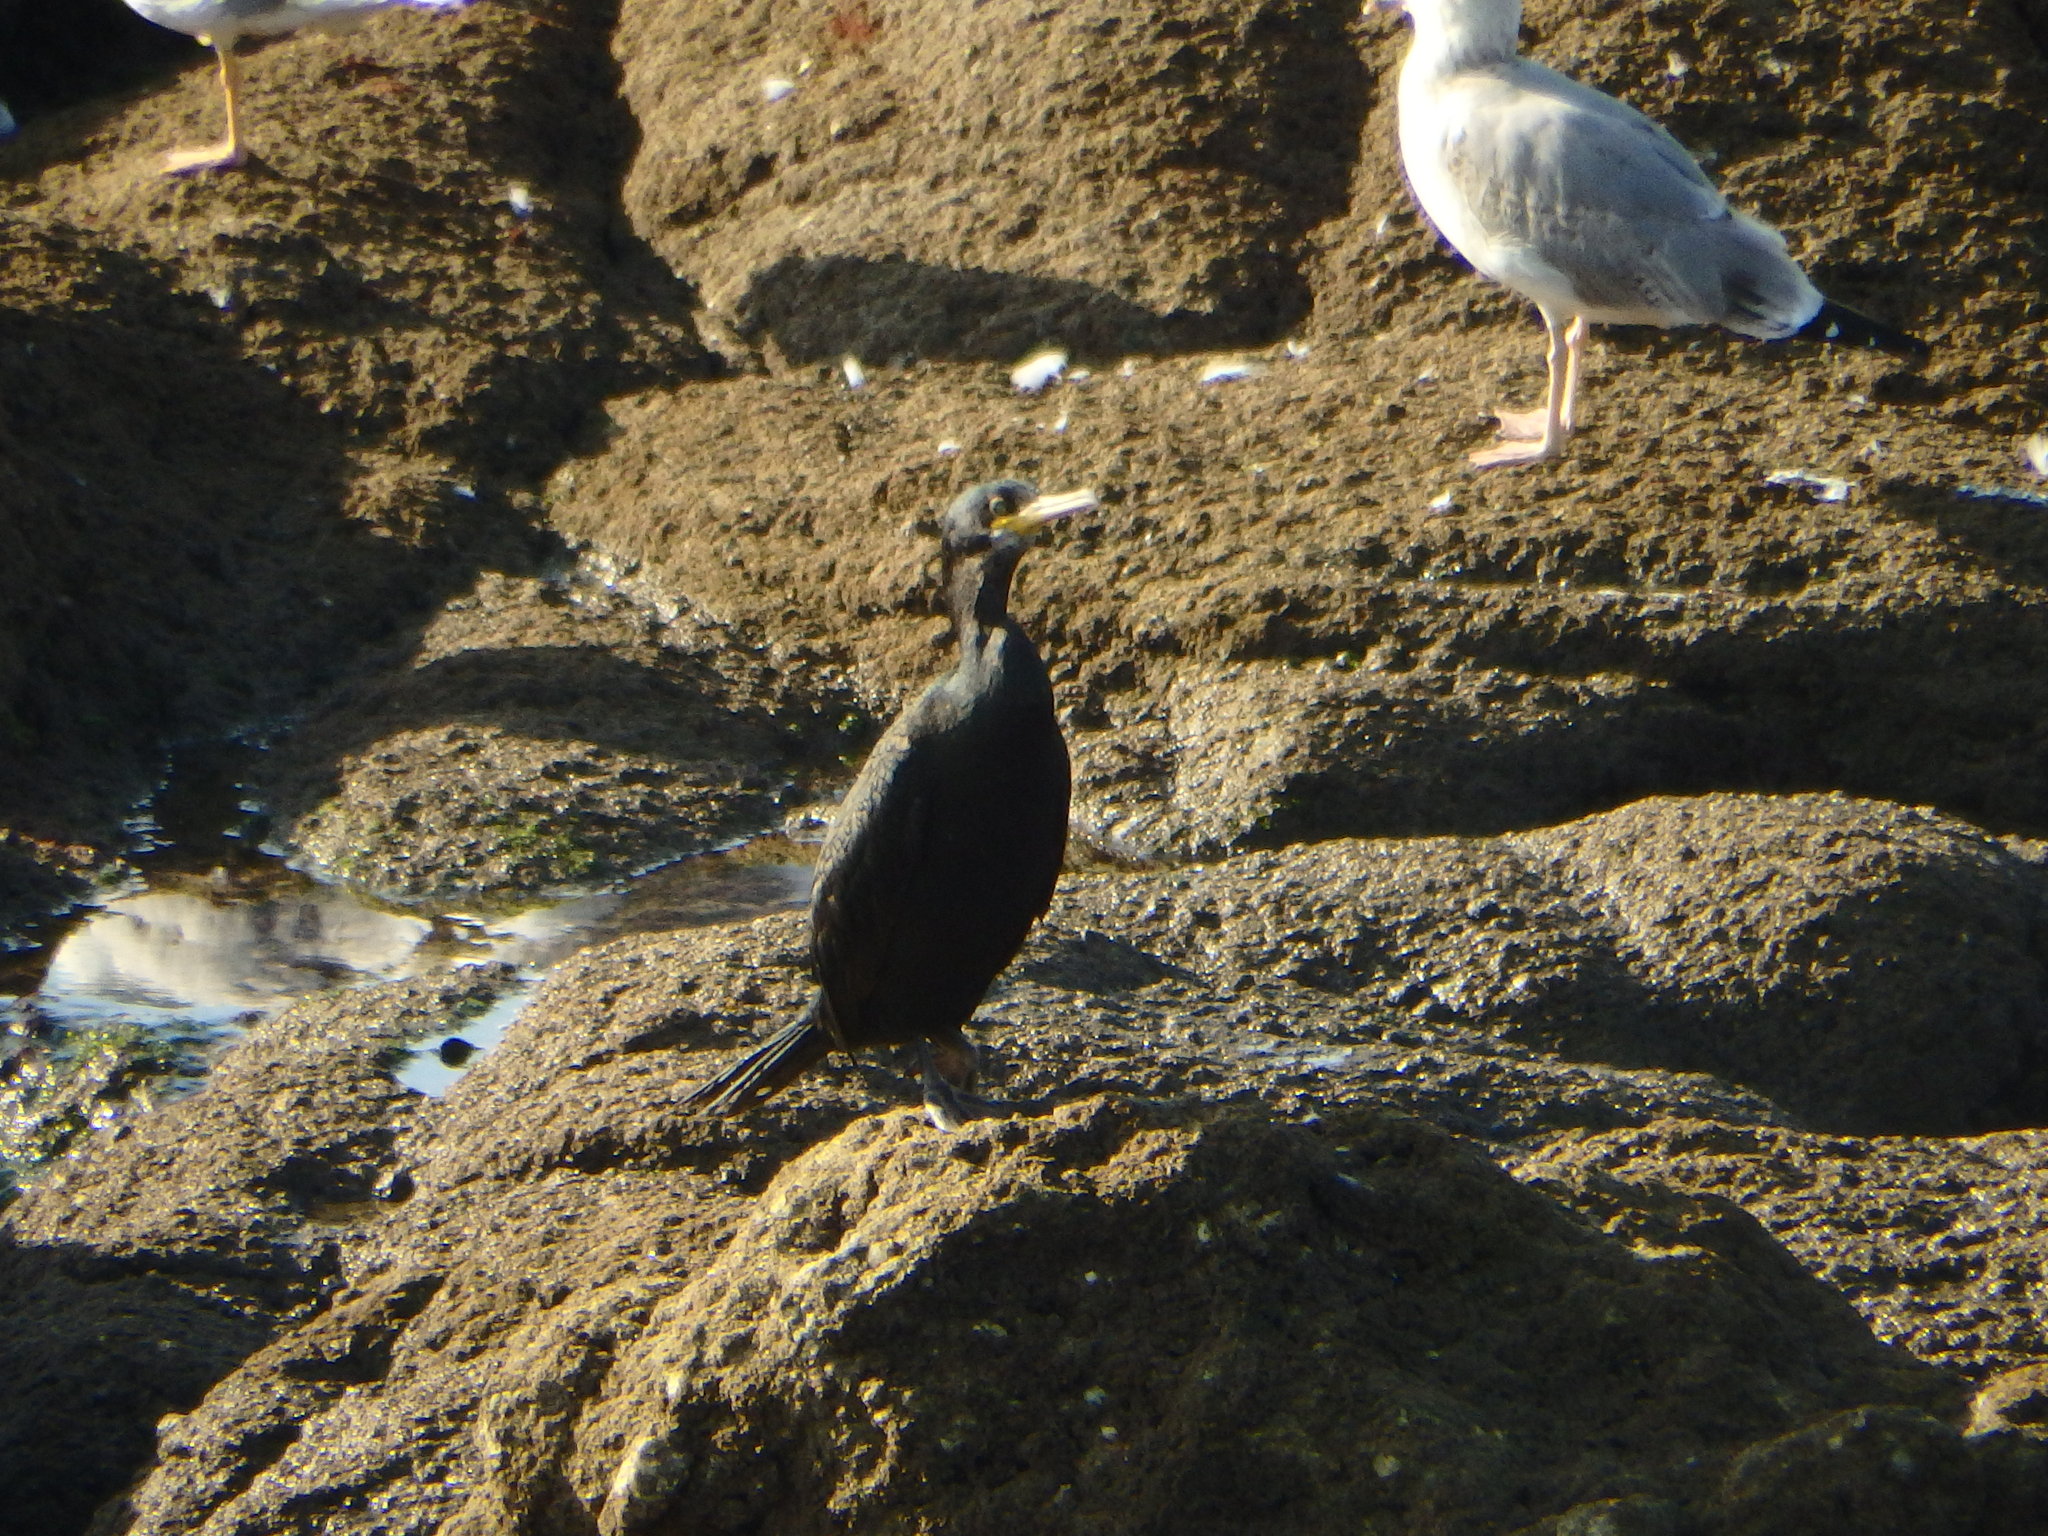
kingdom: Animalia
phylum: Chordata
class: Aves
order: Suliformes
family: Phalacrocoracidae
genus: Phalacrocorax
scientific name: Phalacrocorax aristotelis
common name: European shag
